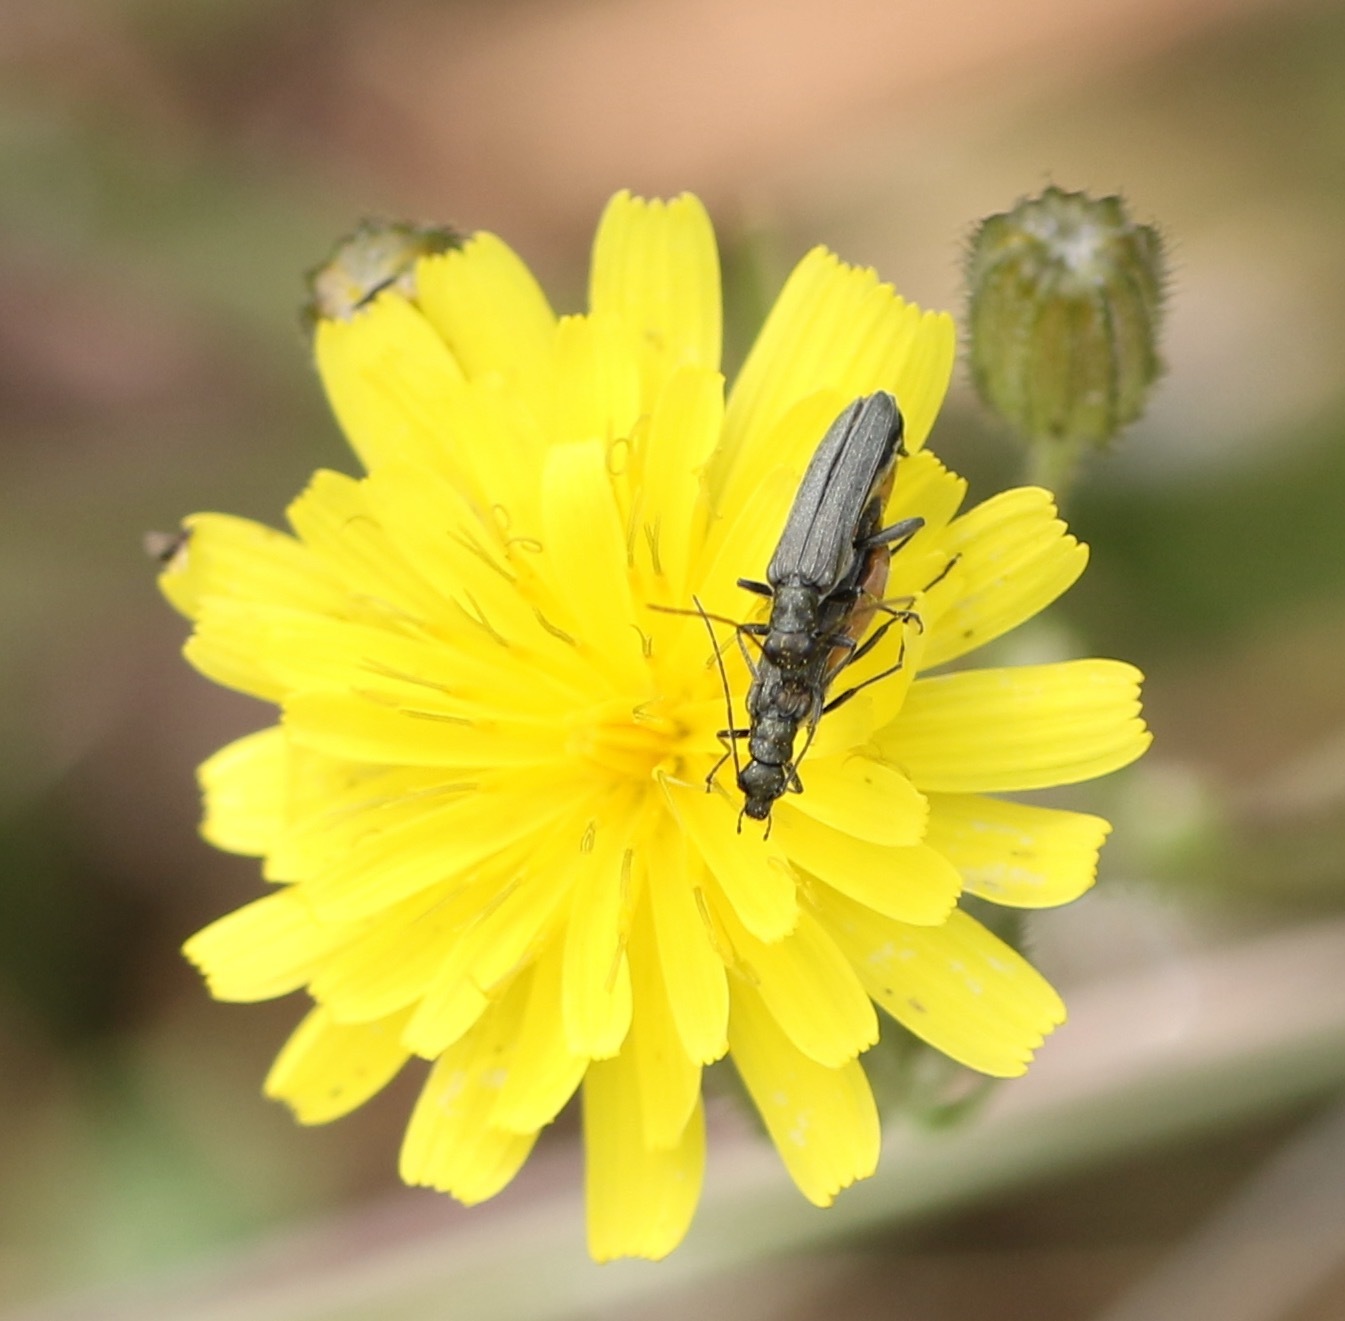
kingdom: Animalia
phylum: Arthropoda
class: Insecta
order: Coleoptera
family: Oedemeridae
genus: Oedemera
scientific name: Oedemera lurida
